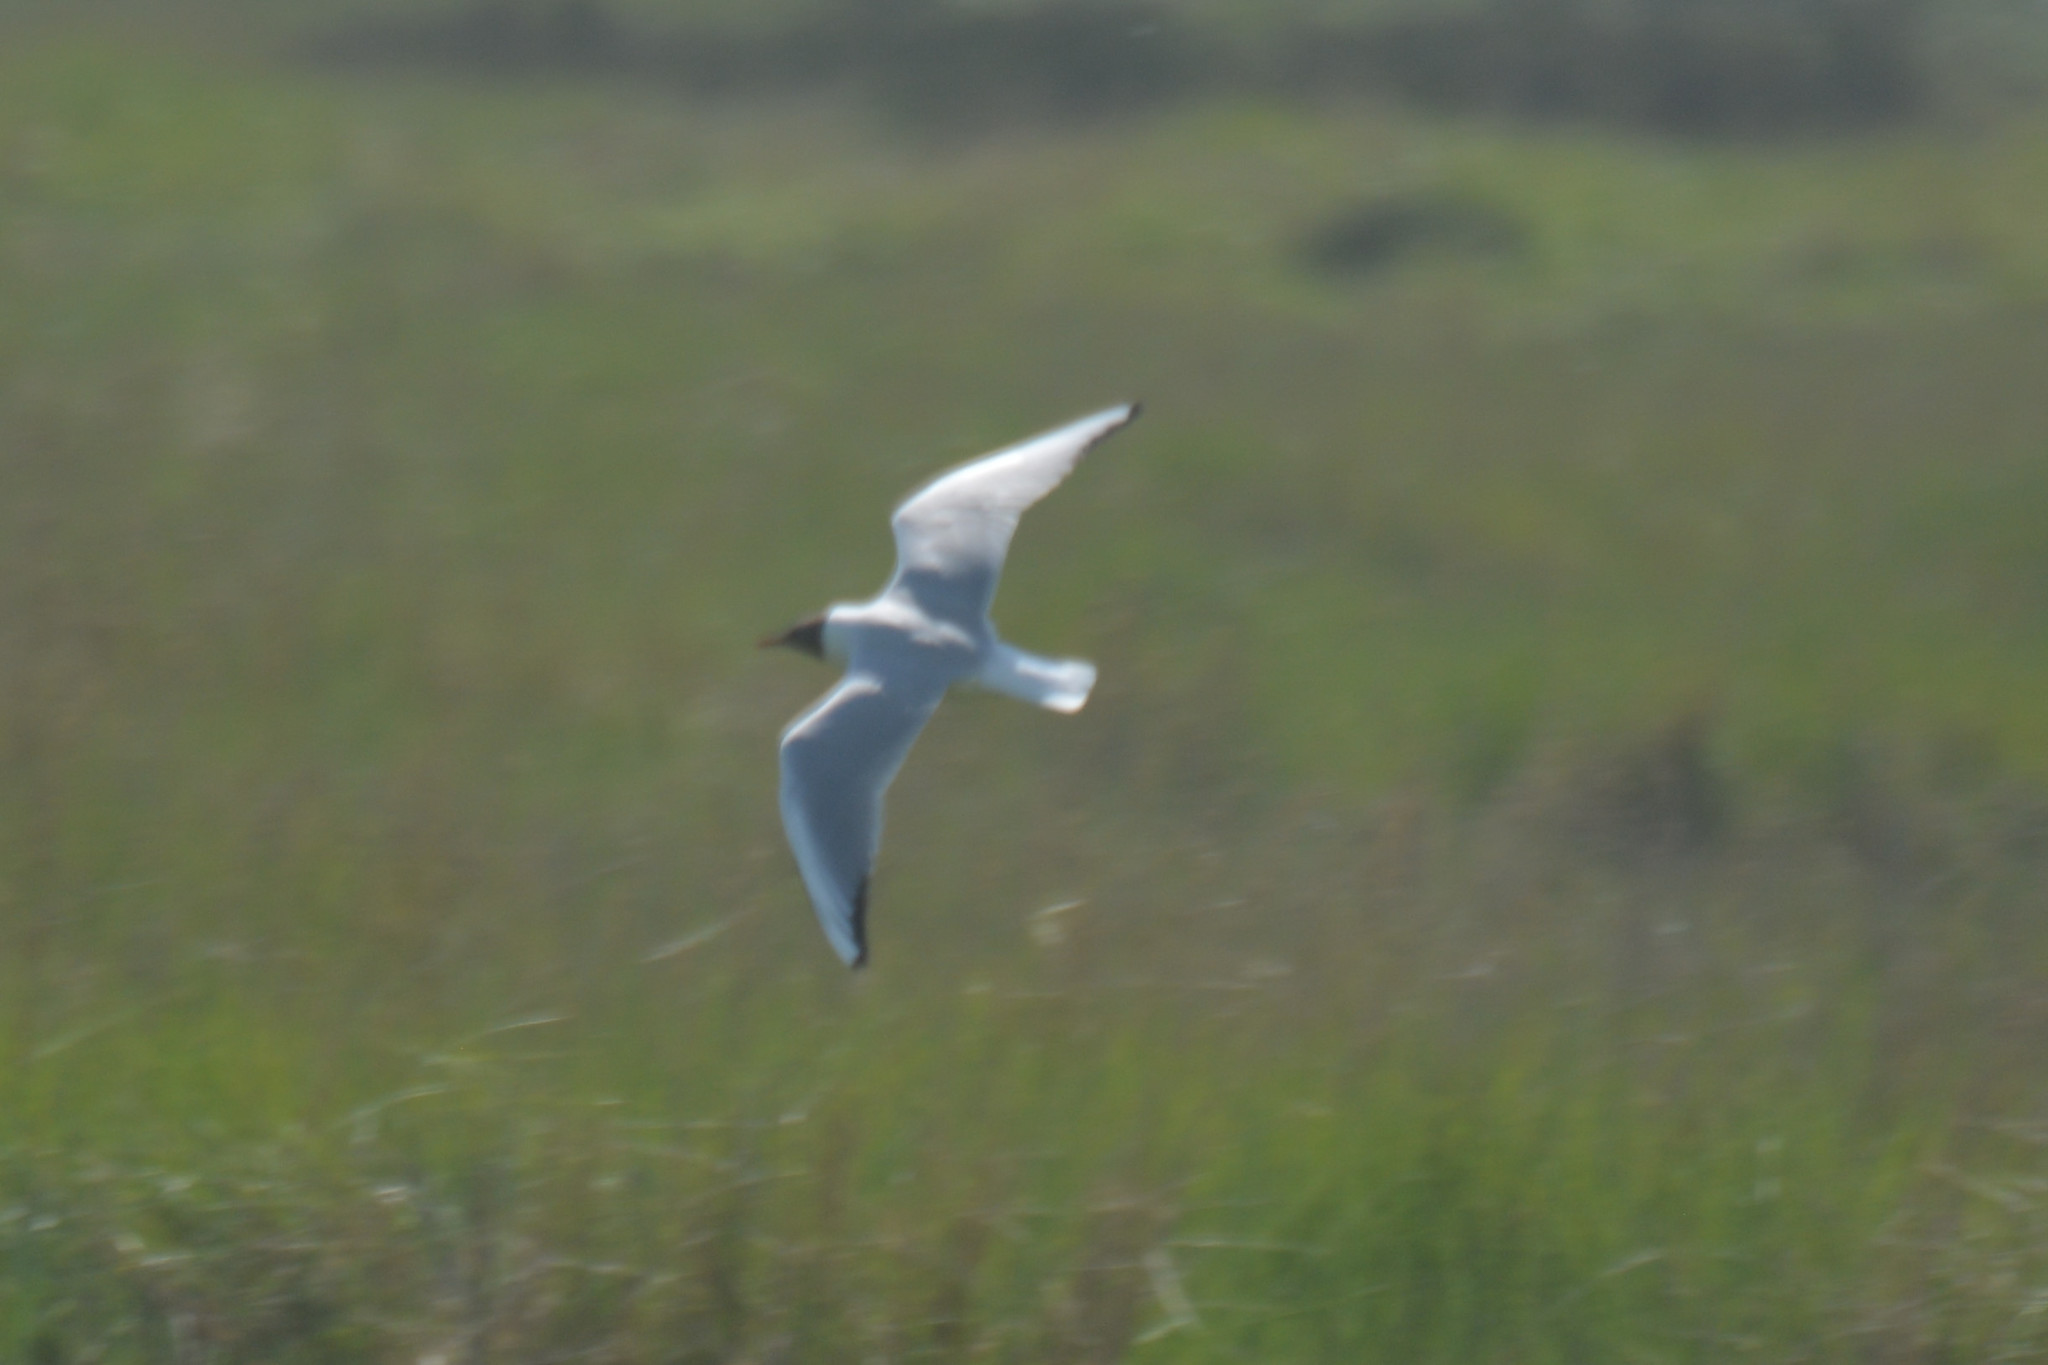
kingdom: Animalia
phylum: Chordata
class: Aves
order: Charadriiformes
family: Laridae
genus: Chroicocephalus
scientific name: Chroicocephalus ridibundus
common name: Black-headed gull
